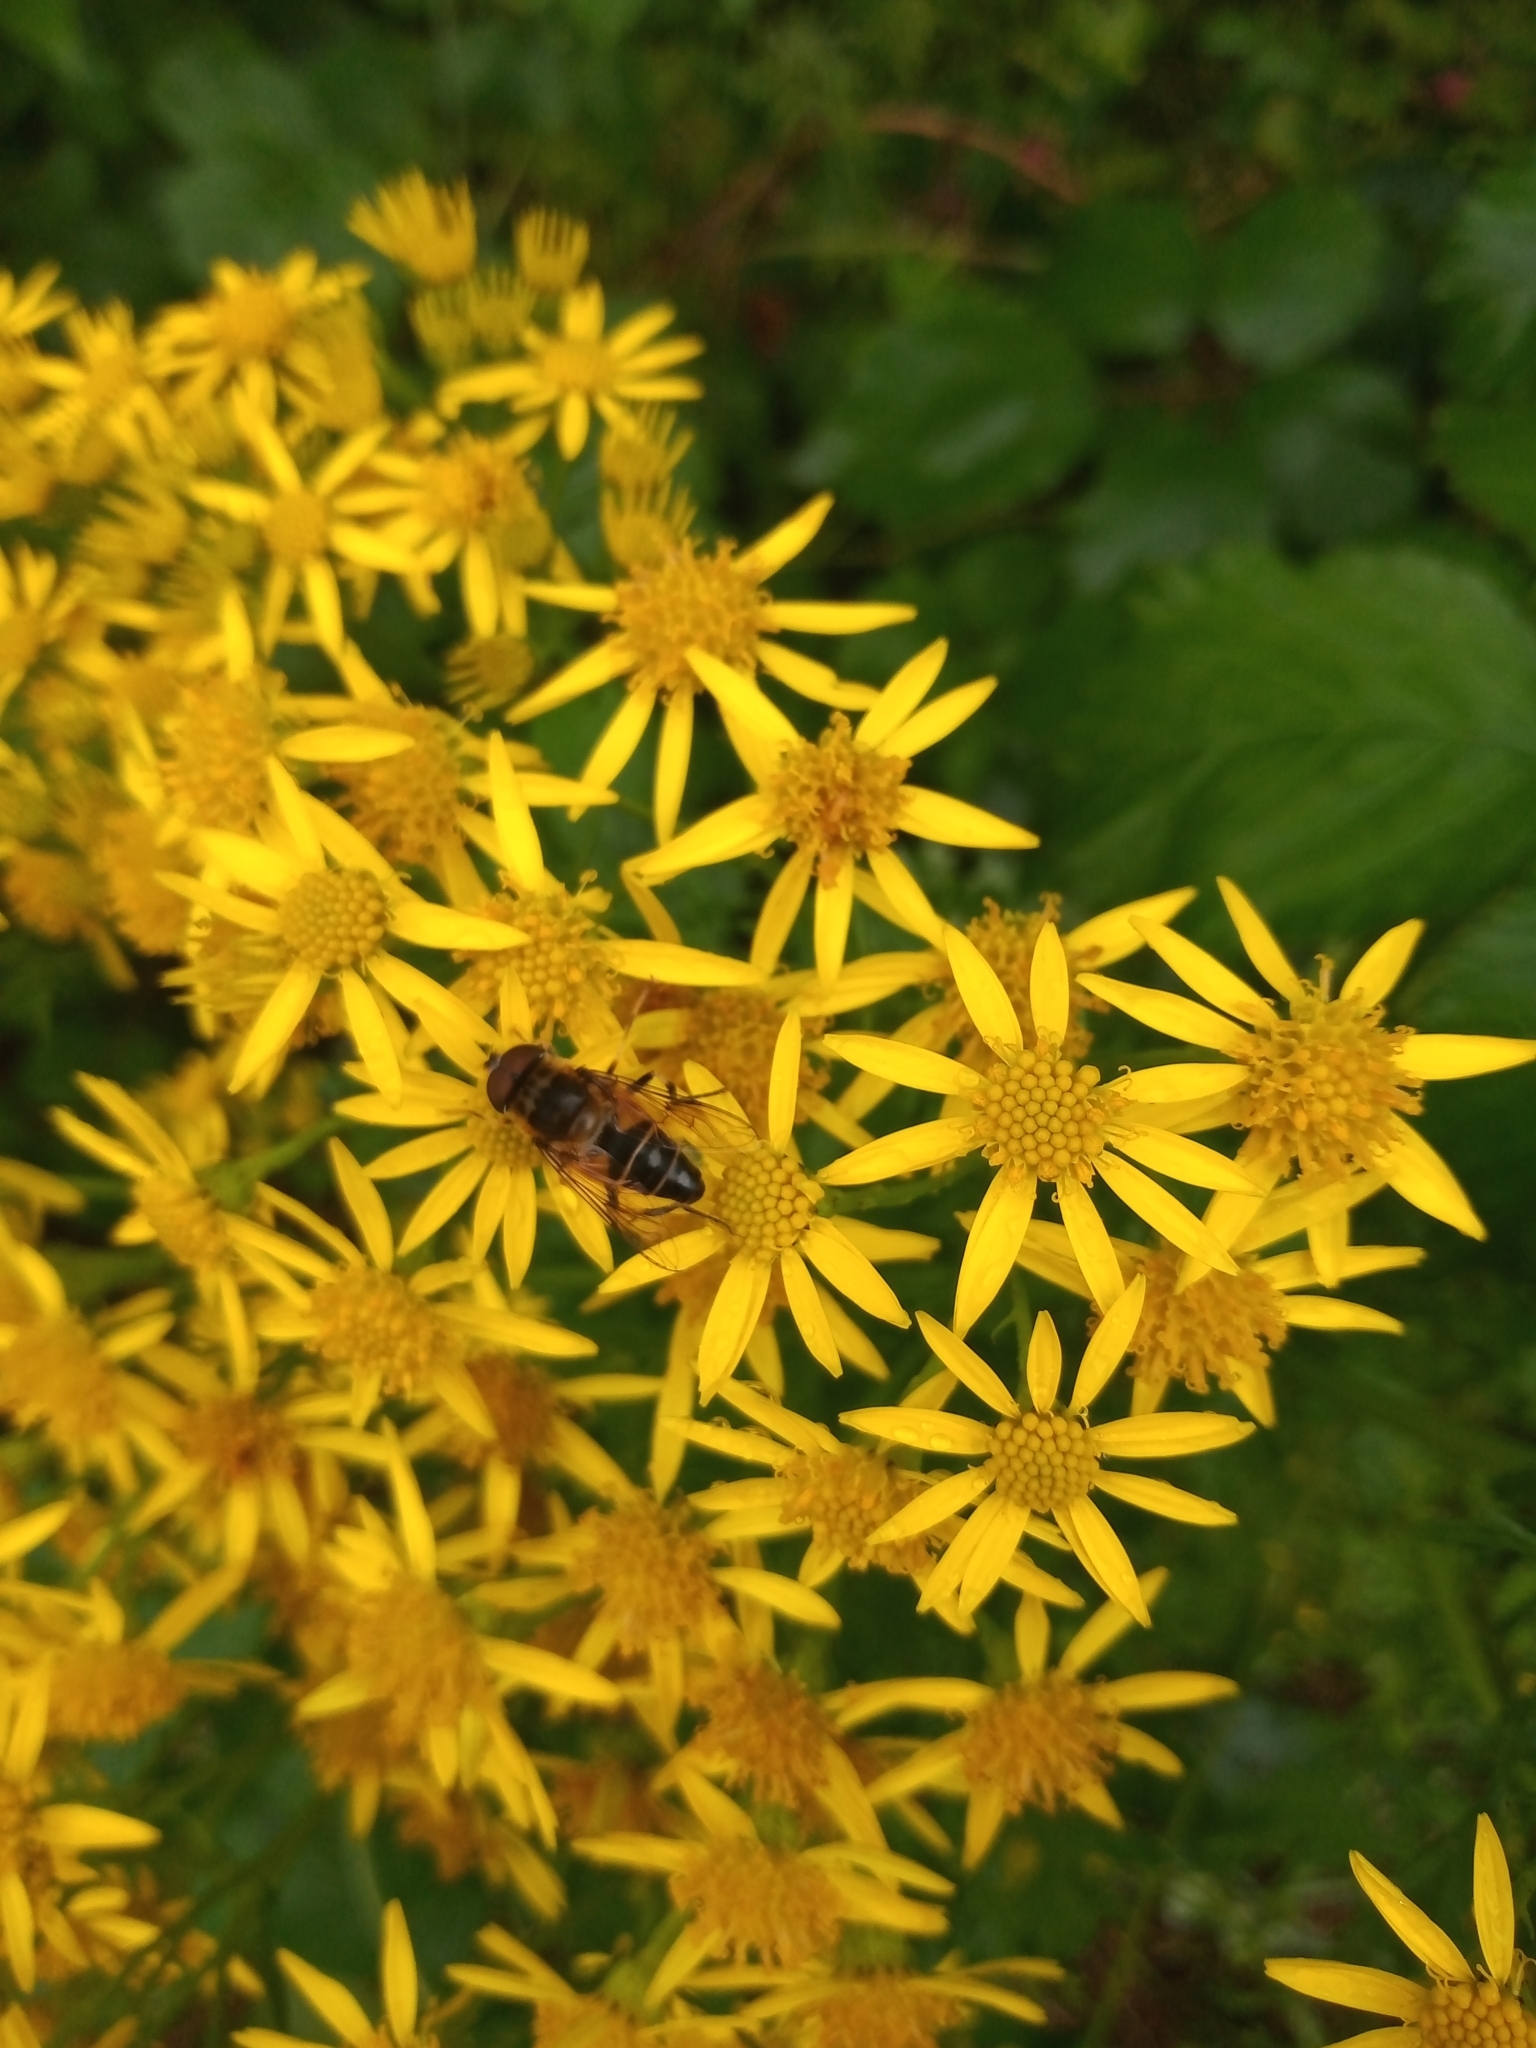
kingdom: Animalia
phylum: Arthropoda
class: Insecta
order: Diptera
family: Syrphidae
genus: Eristalis
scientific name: Eristalis pertinax
